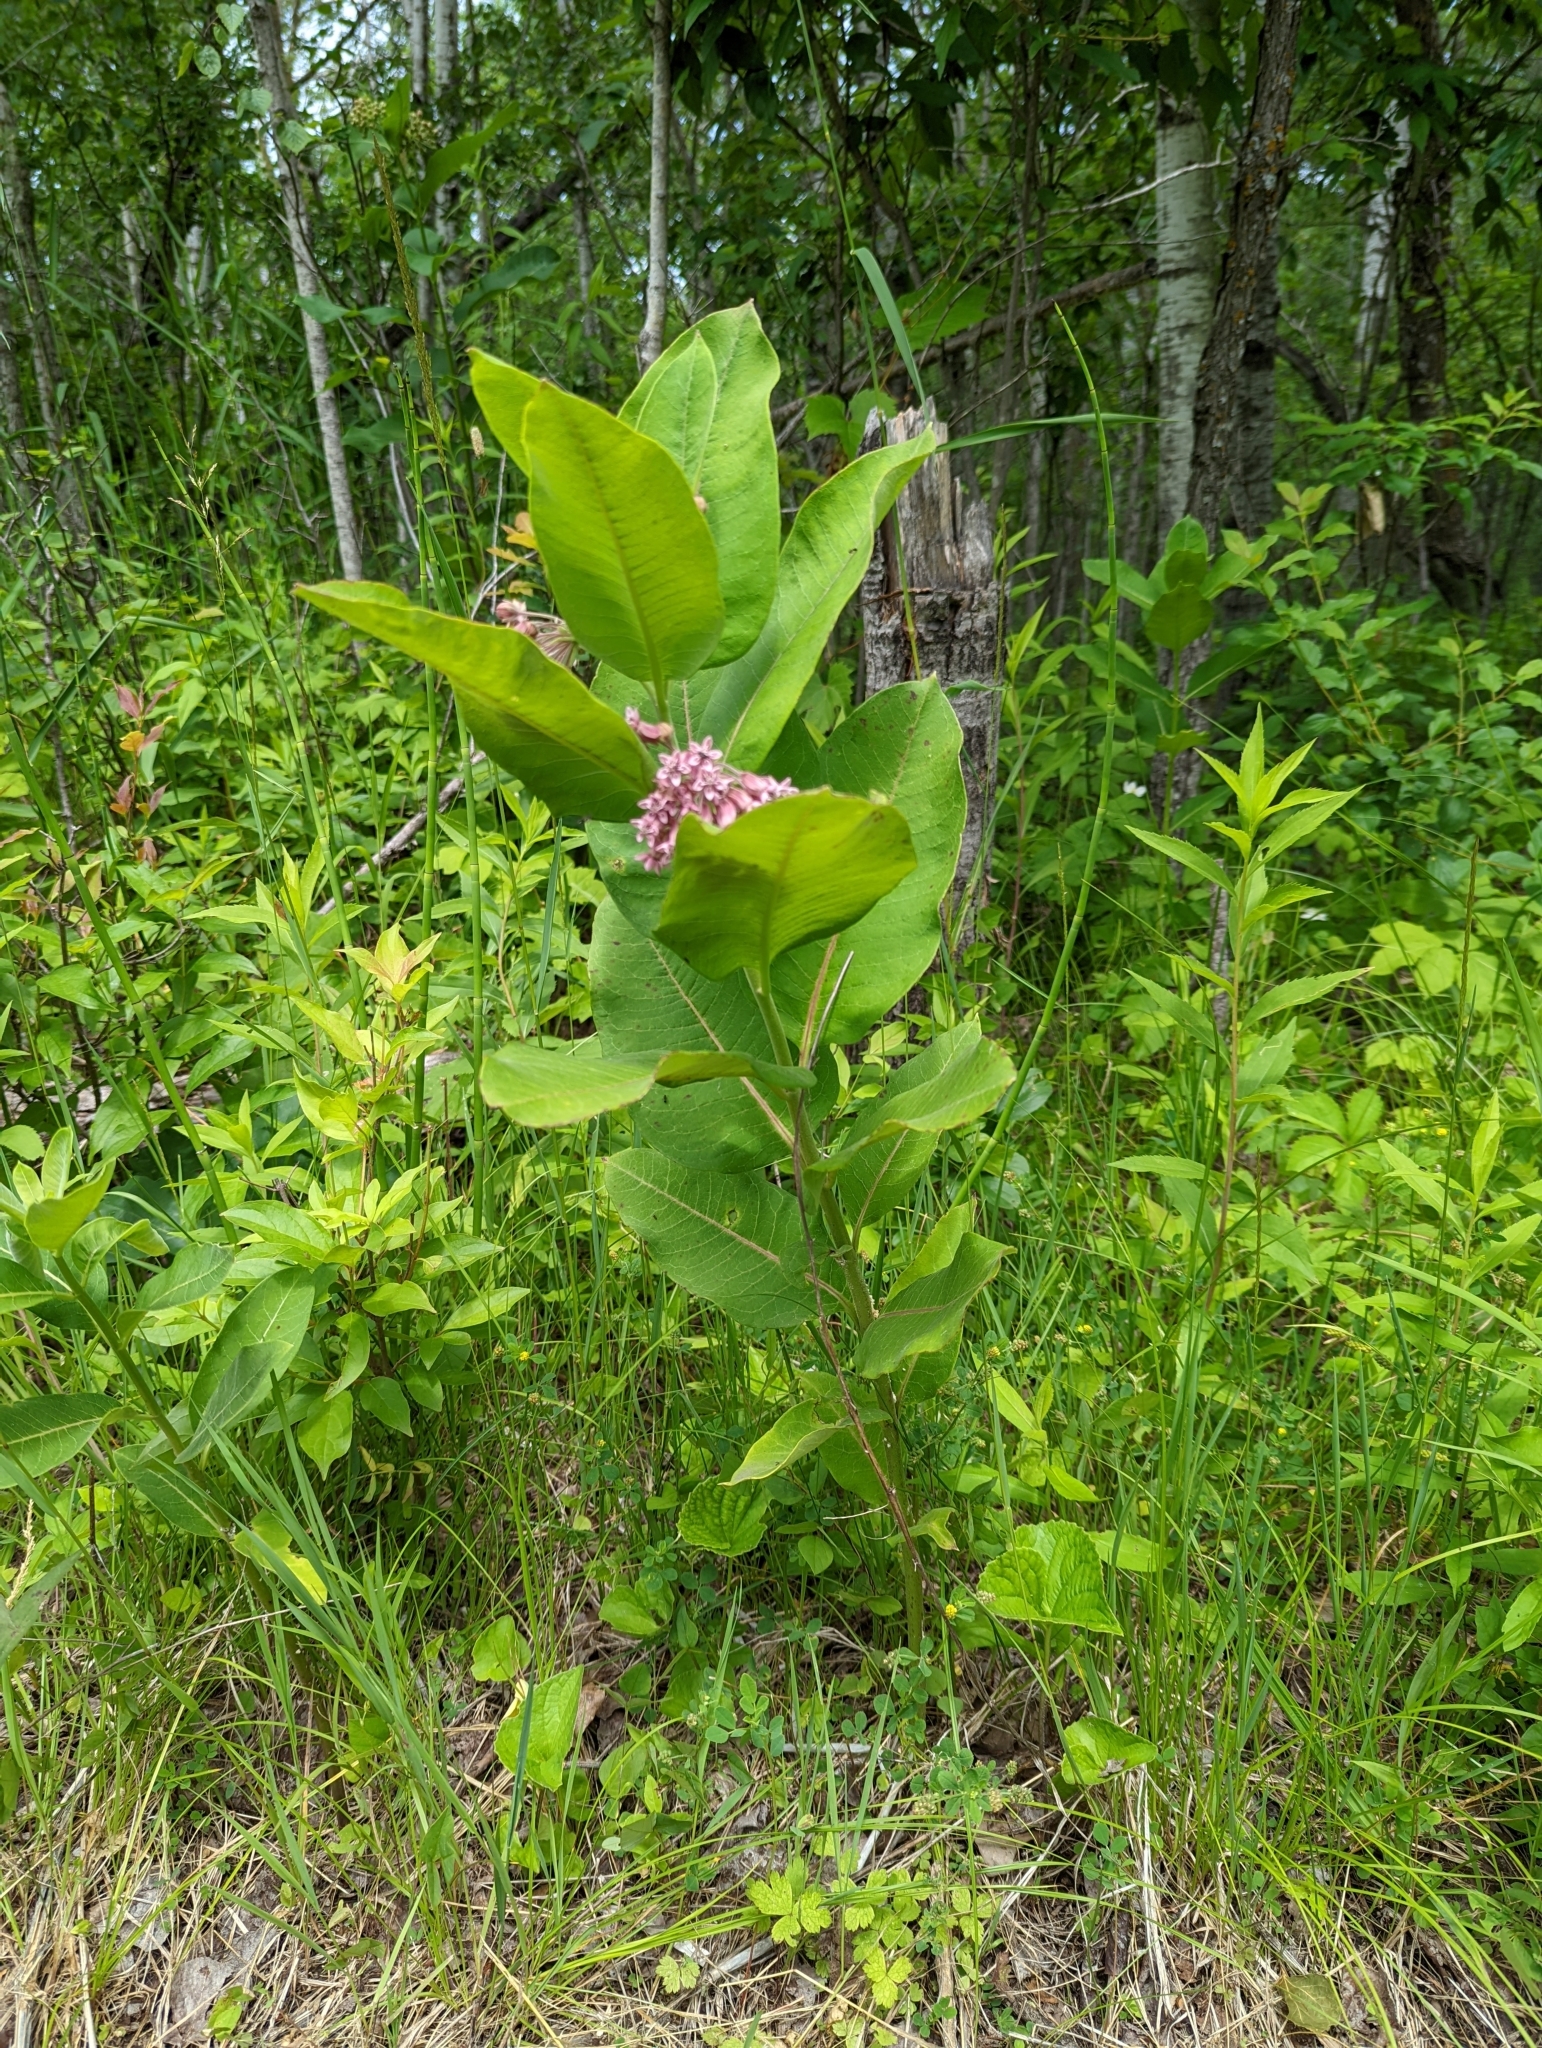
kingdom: Plantae
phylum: Tracheophyta
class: Magnoliopsida
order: Gentianales
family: Apocynaceae
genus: Asclepias
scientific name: Asclepias syriaca
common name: Common milkweed
